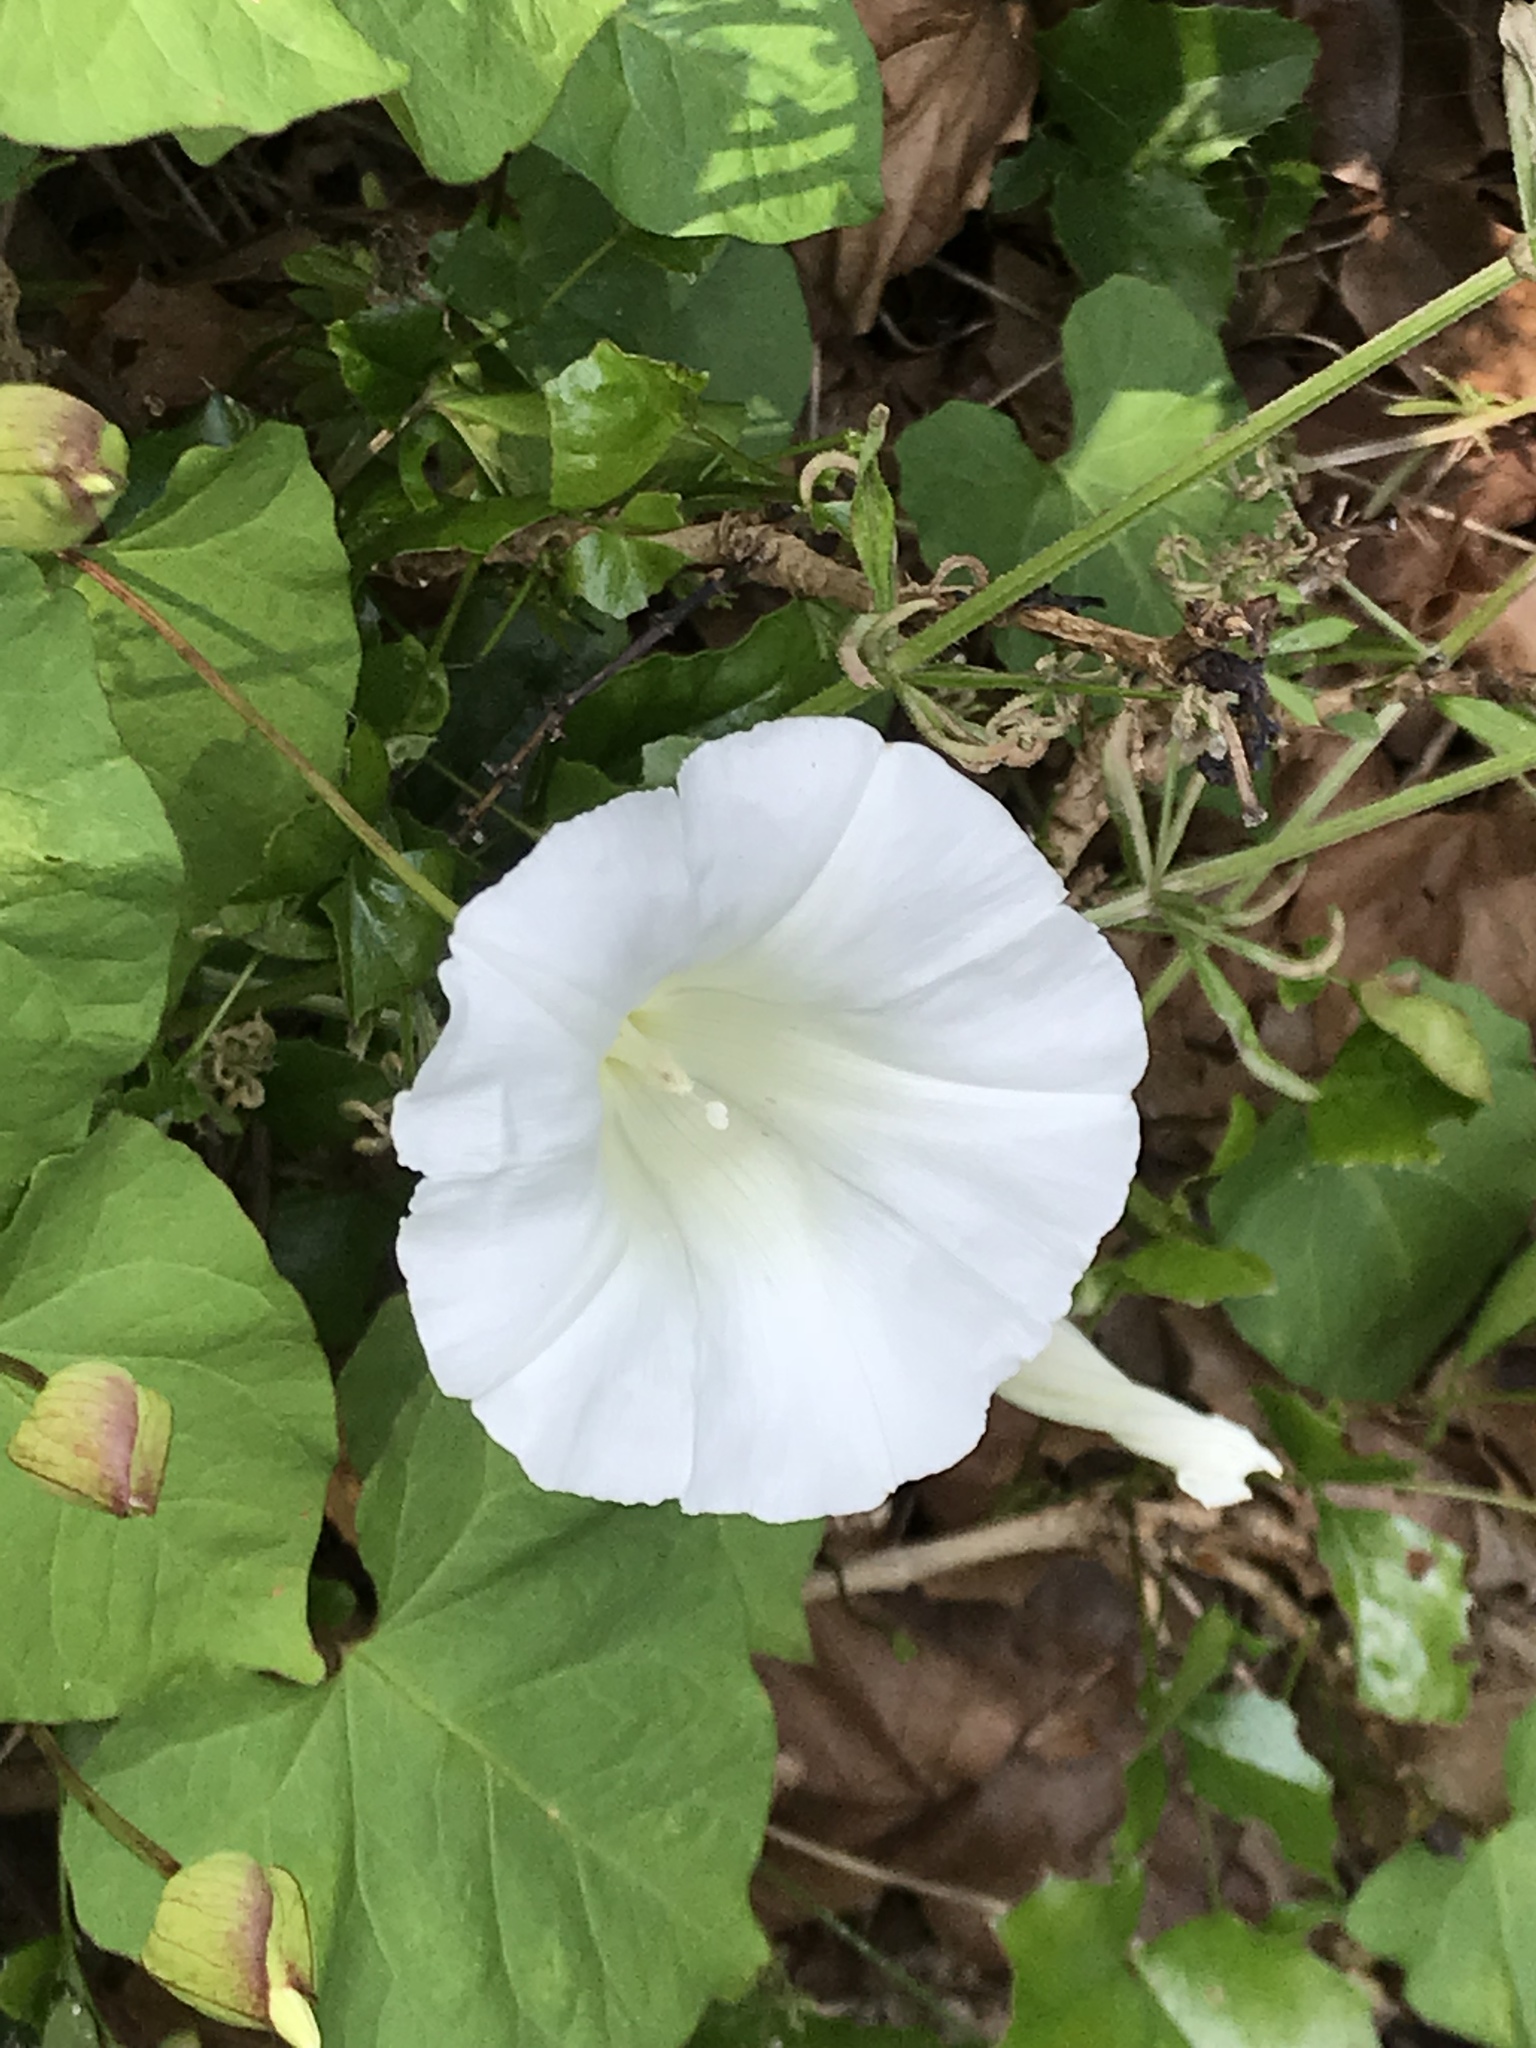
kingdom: Plantae
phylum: Tracheophyta
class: Magnoliopsida
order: Solanales
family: Convolvulaceae
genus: Calystegia
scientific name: Calystegia silvatica
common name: Large bindweed
